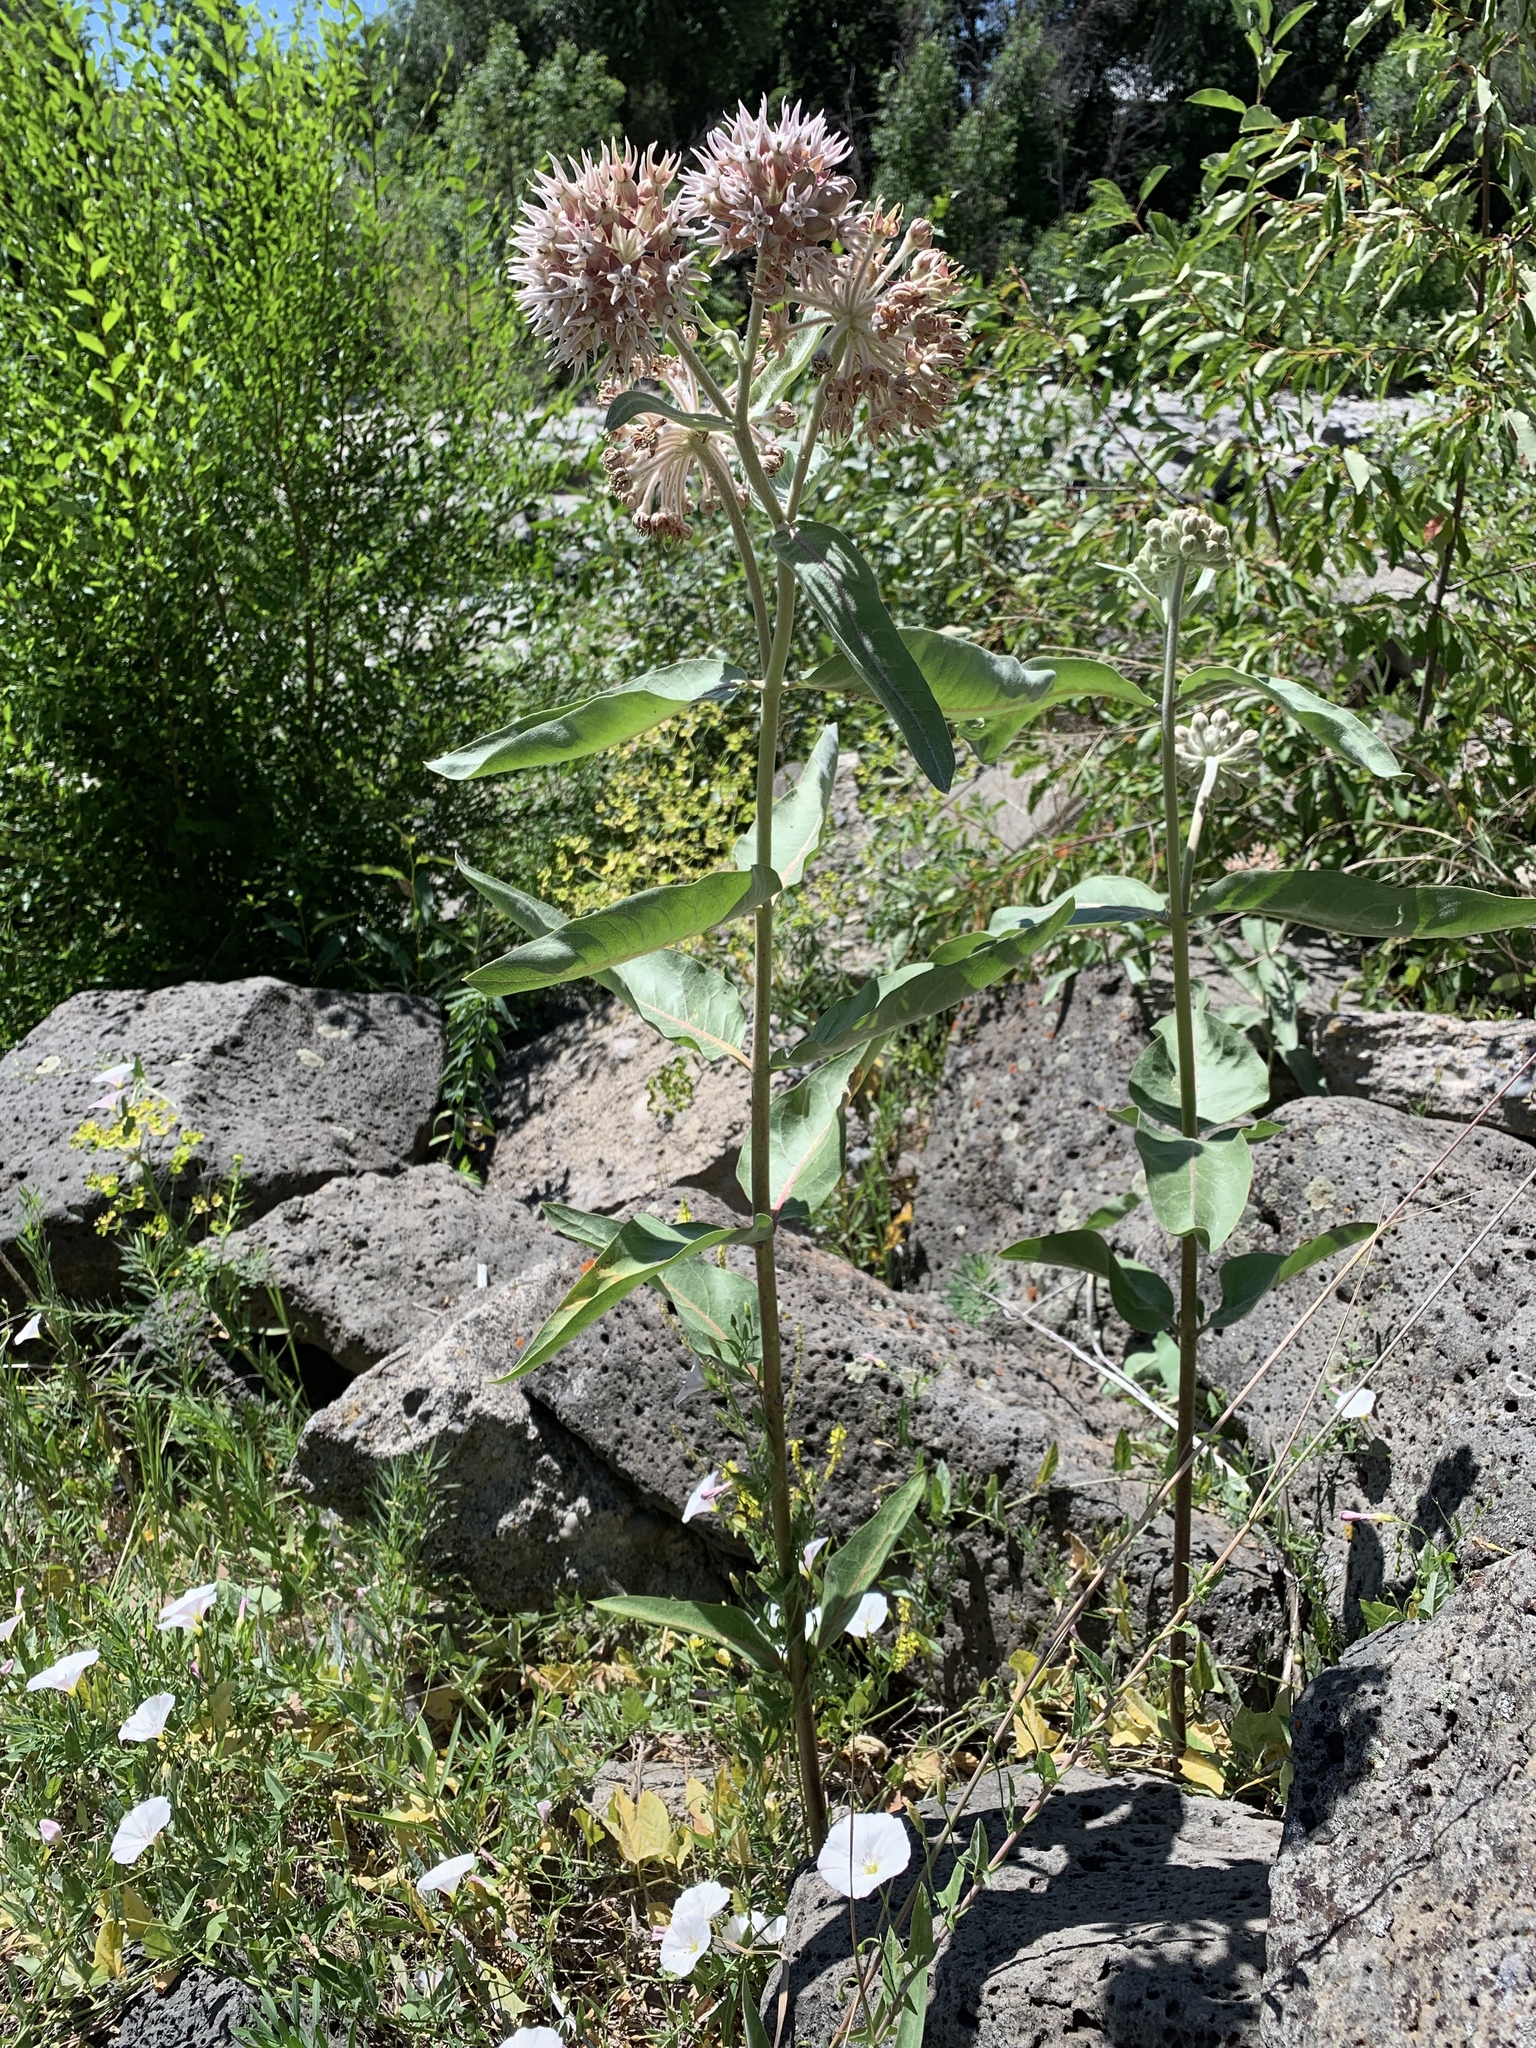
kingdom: Plantae
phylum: Tracheophyta
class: Magnoliopsida
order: Gentianales
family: Apocynaceae
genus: Asclepias
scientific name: Asclepias speciosa
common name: Showy milkweed
